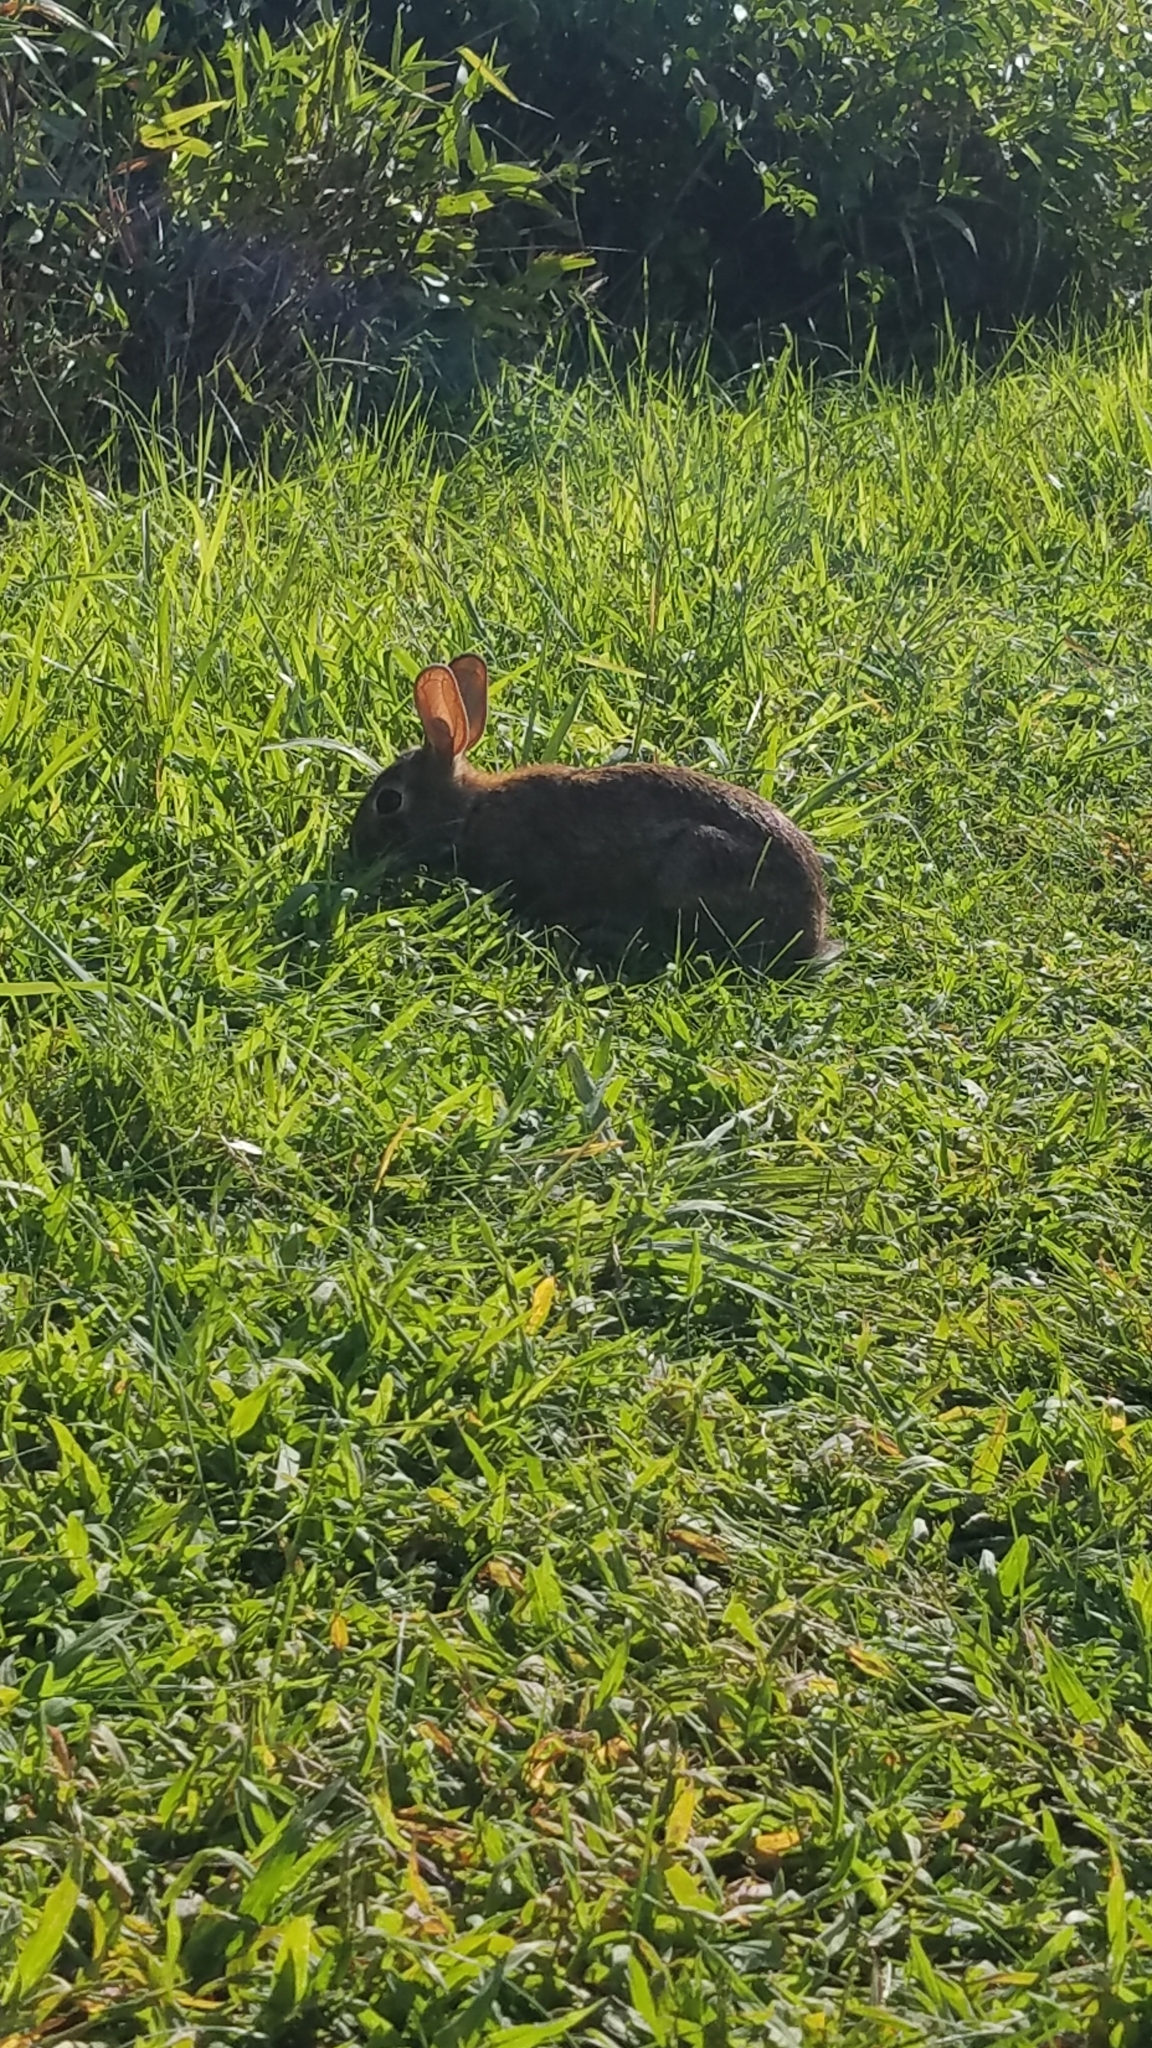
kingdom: Animalia
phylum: Chordata
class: Mammalia
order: Lagomorpha
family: Leporidae
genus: Sylvilagus
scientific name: Sylvilagus floridanus
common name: Eastern cottontail
